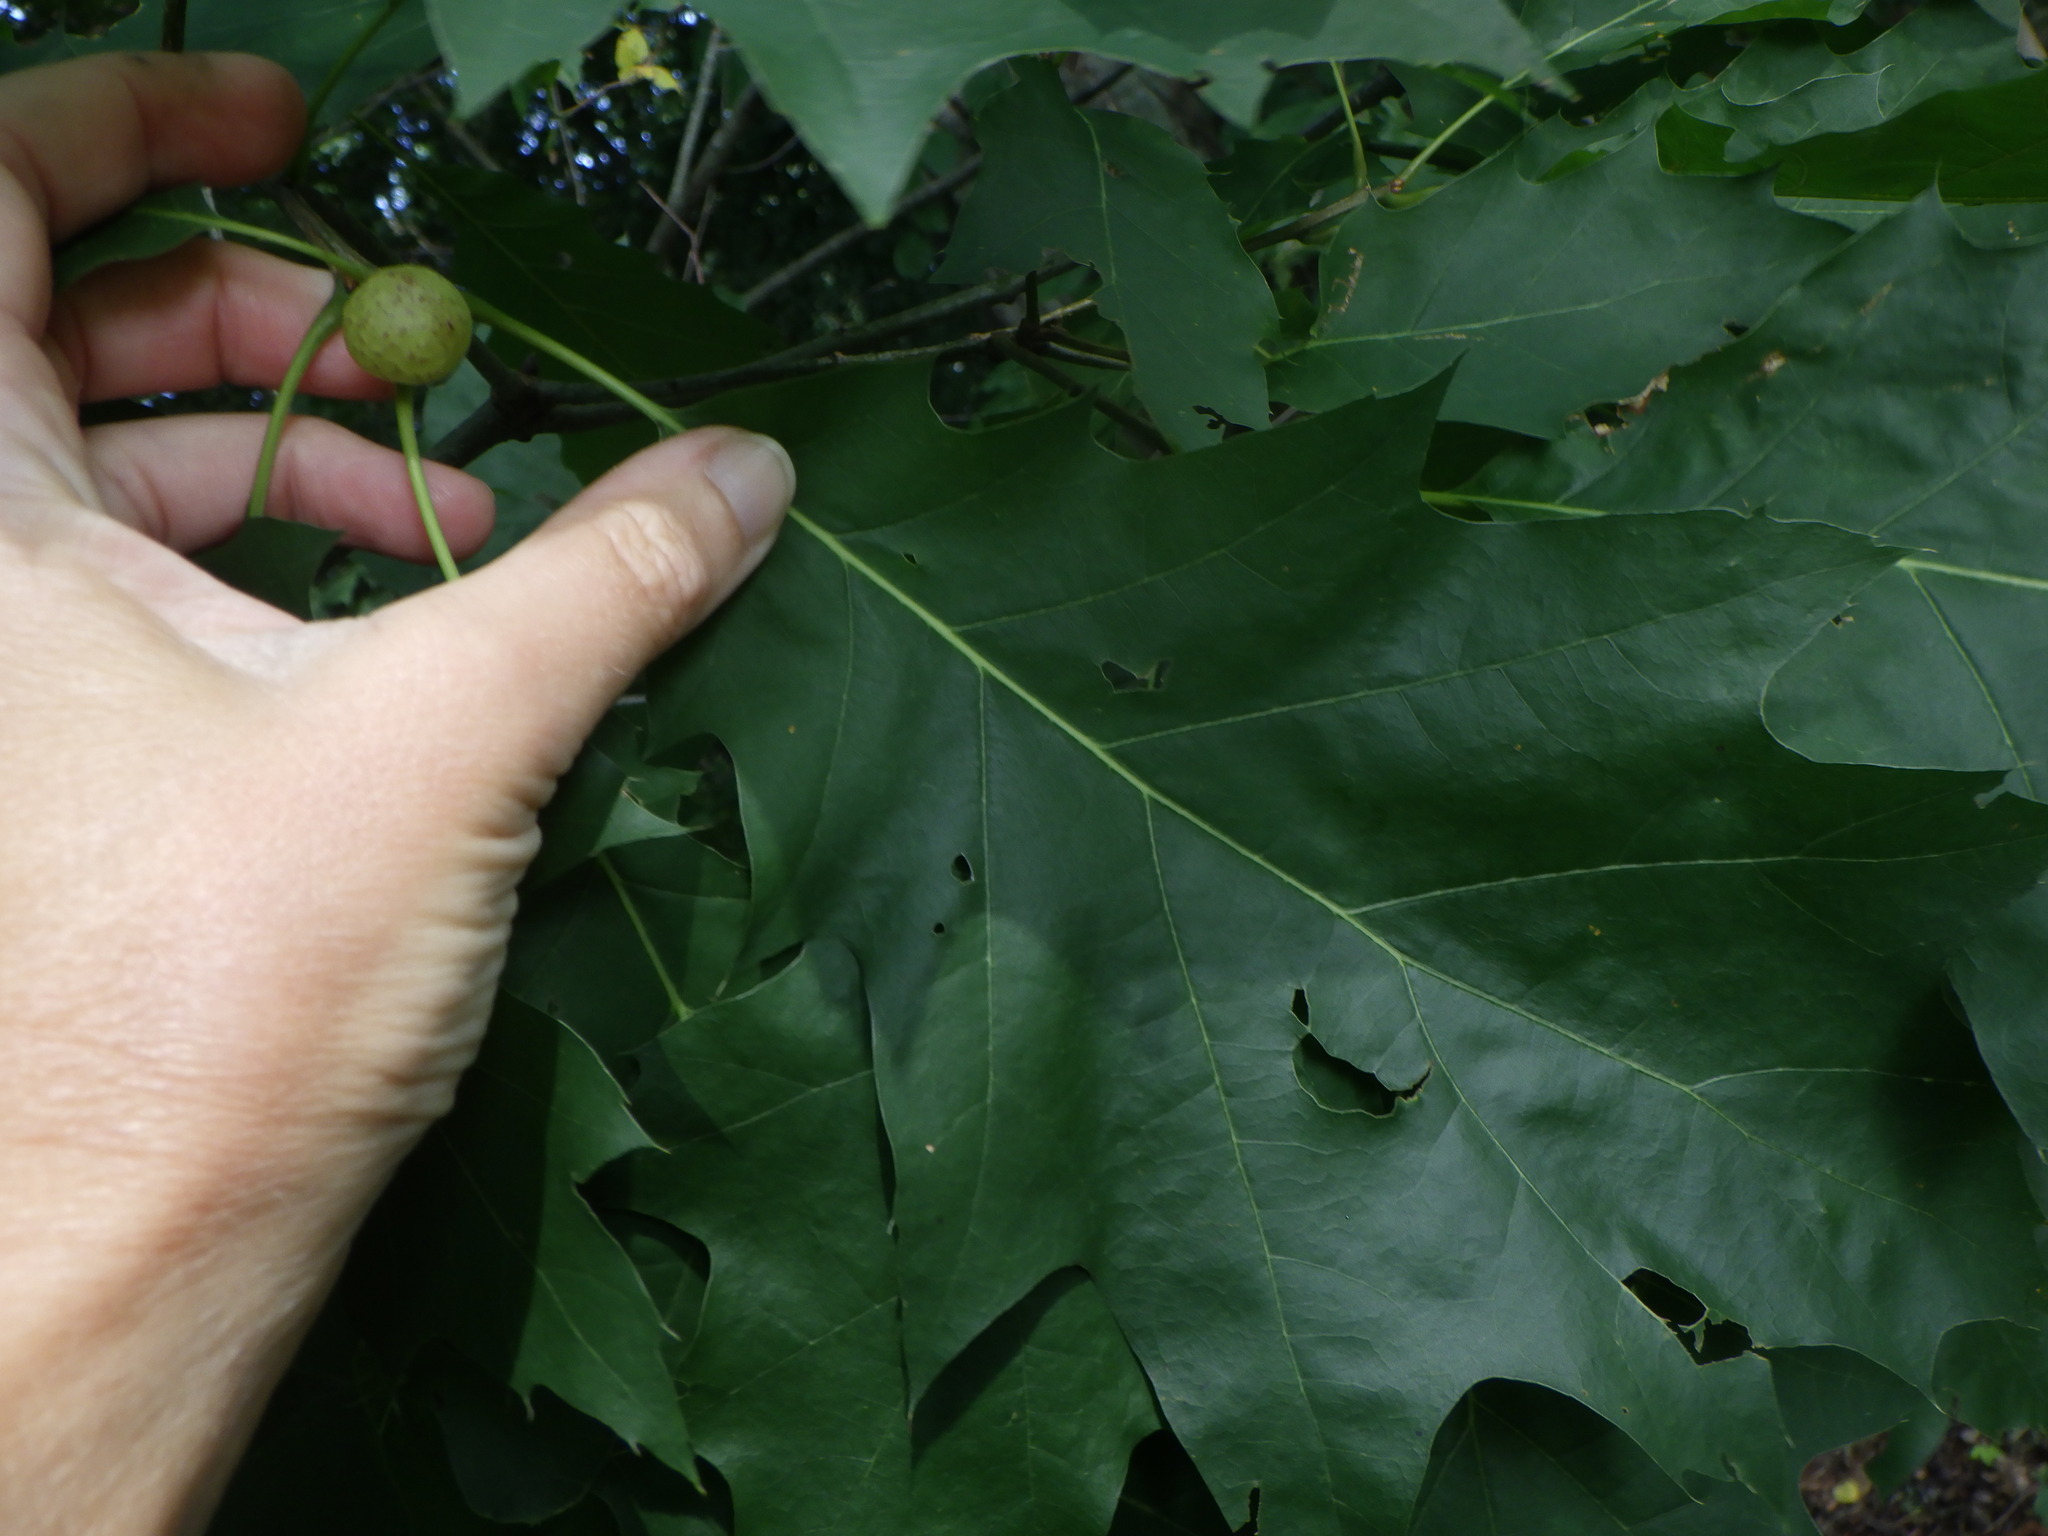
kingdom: Animalia
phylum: Arthropoda
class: Insecta
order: Hymenoptera
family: Cynipidae
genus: Amphibolips
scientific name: Amphibolips
